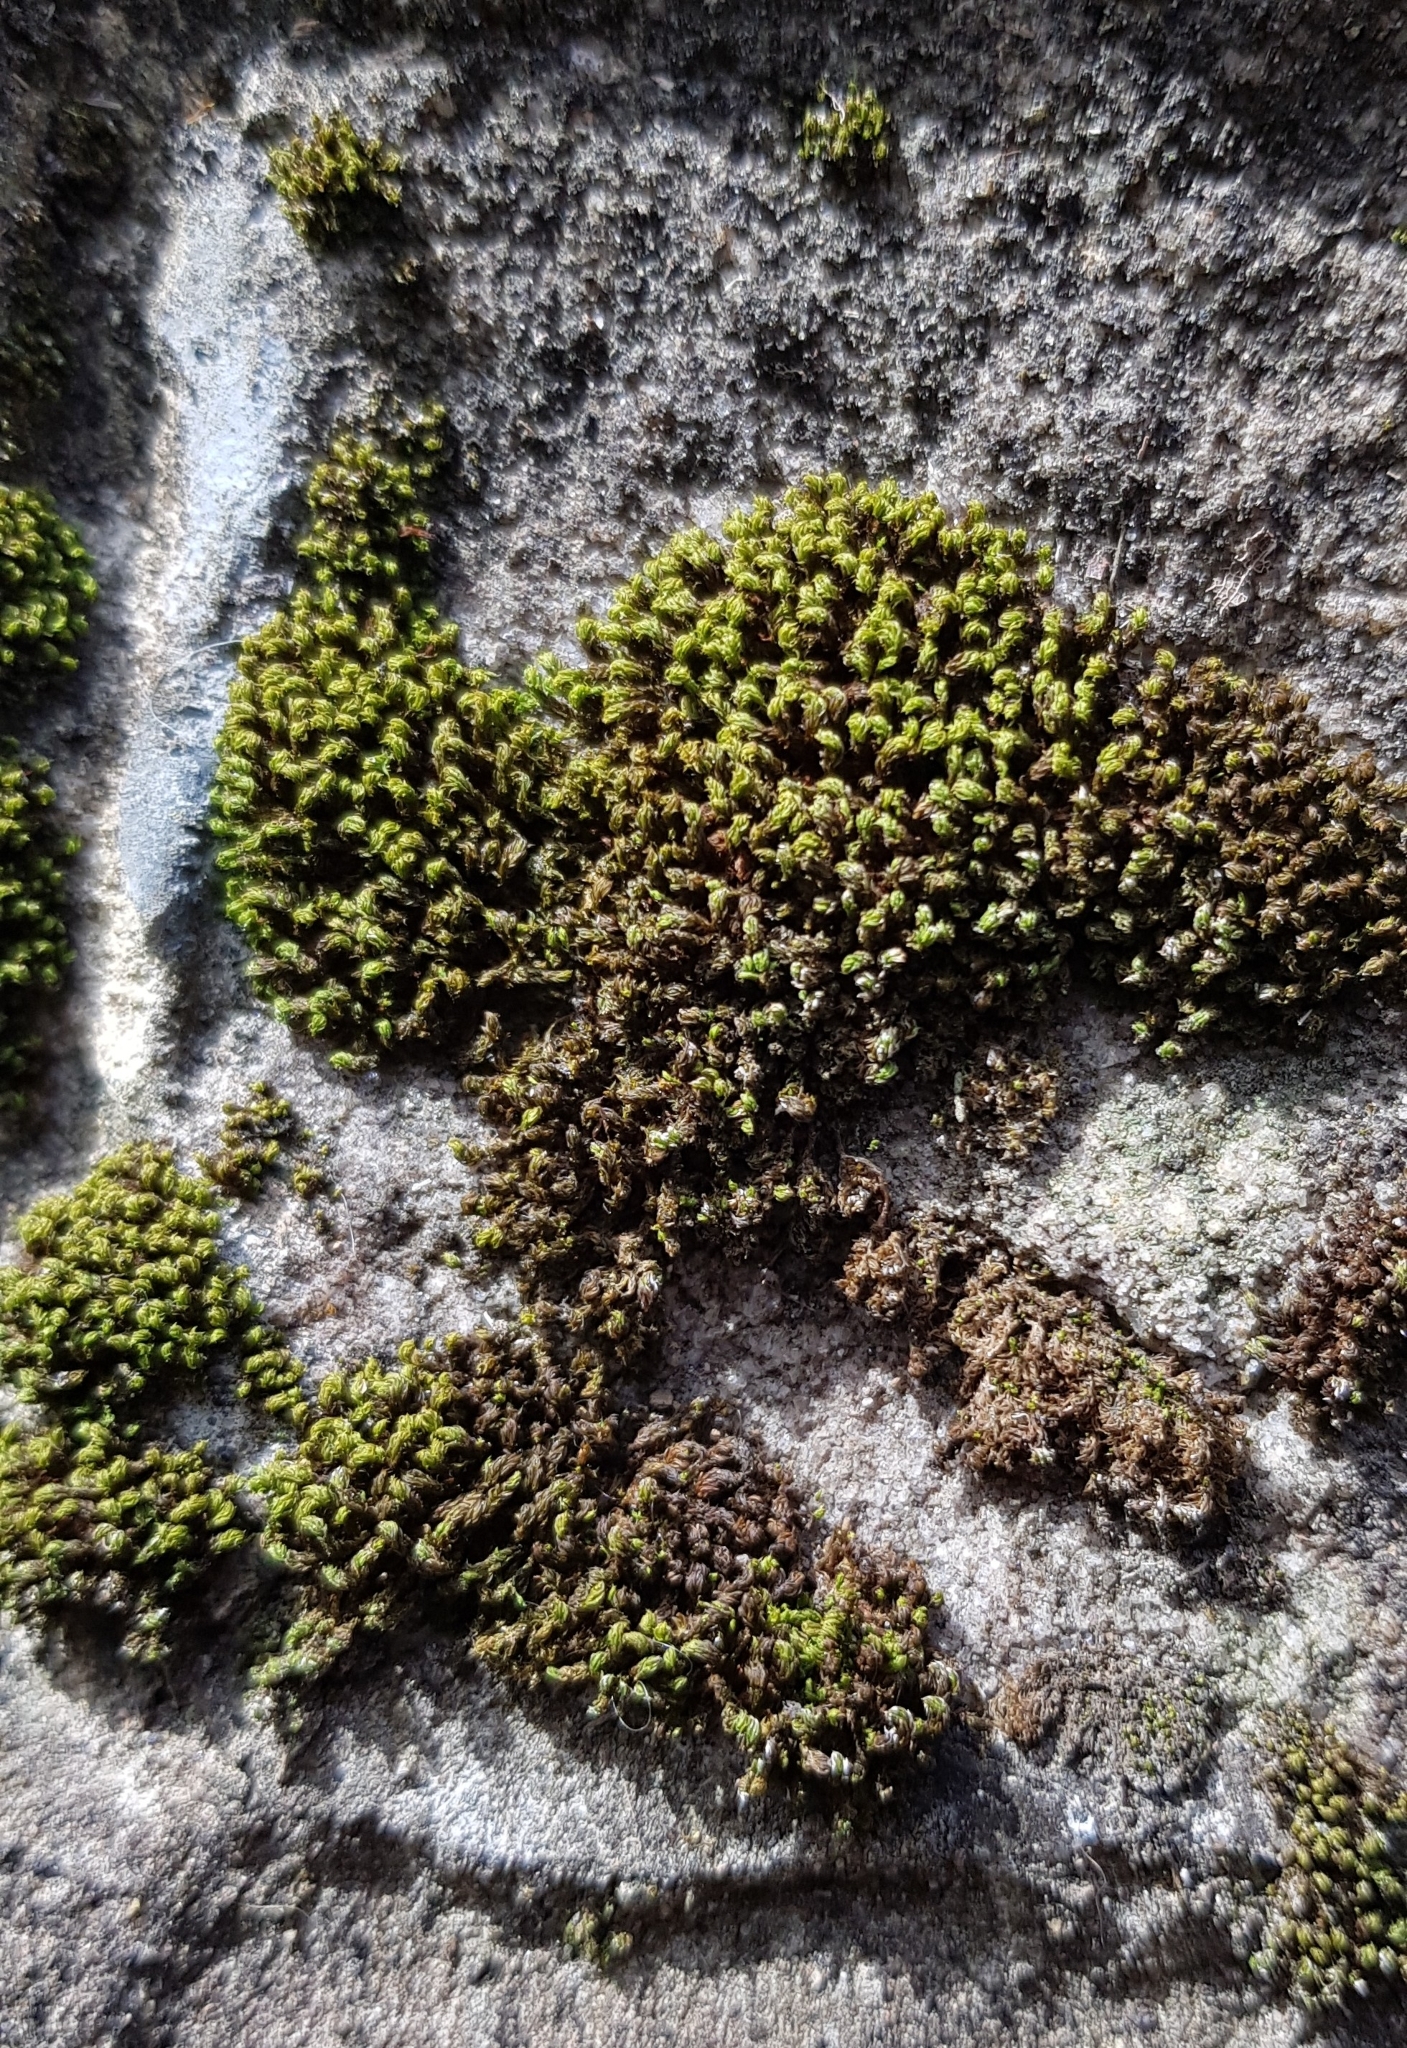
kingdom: Plantae
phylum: Bryophyta
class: Bryopsida
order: Orthotrichales
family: Orthotrichaceae
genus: Zygodon
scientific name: Zygodon viridissimus
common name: Green yoke moss
